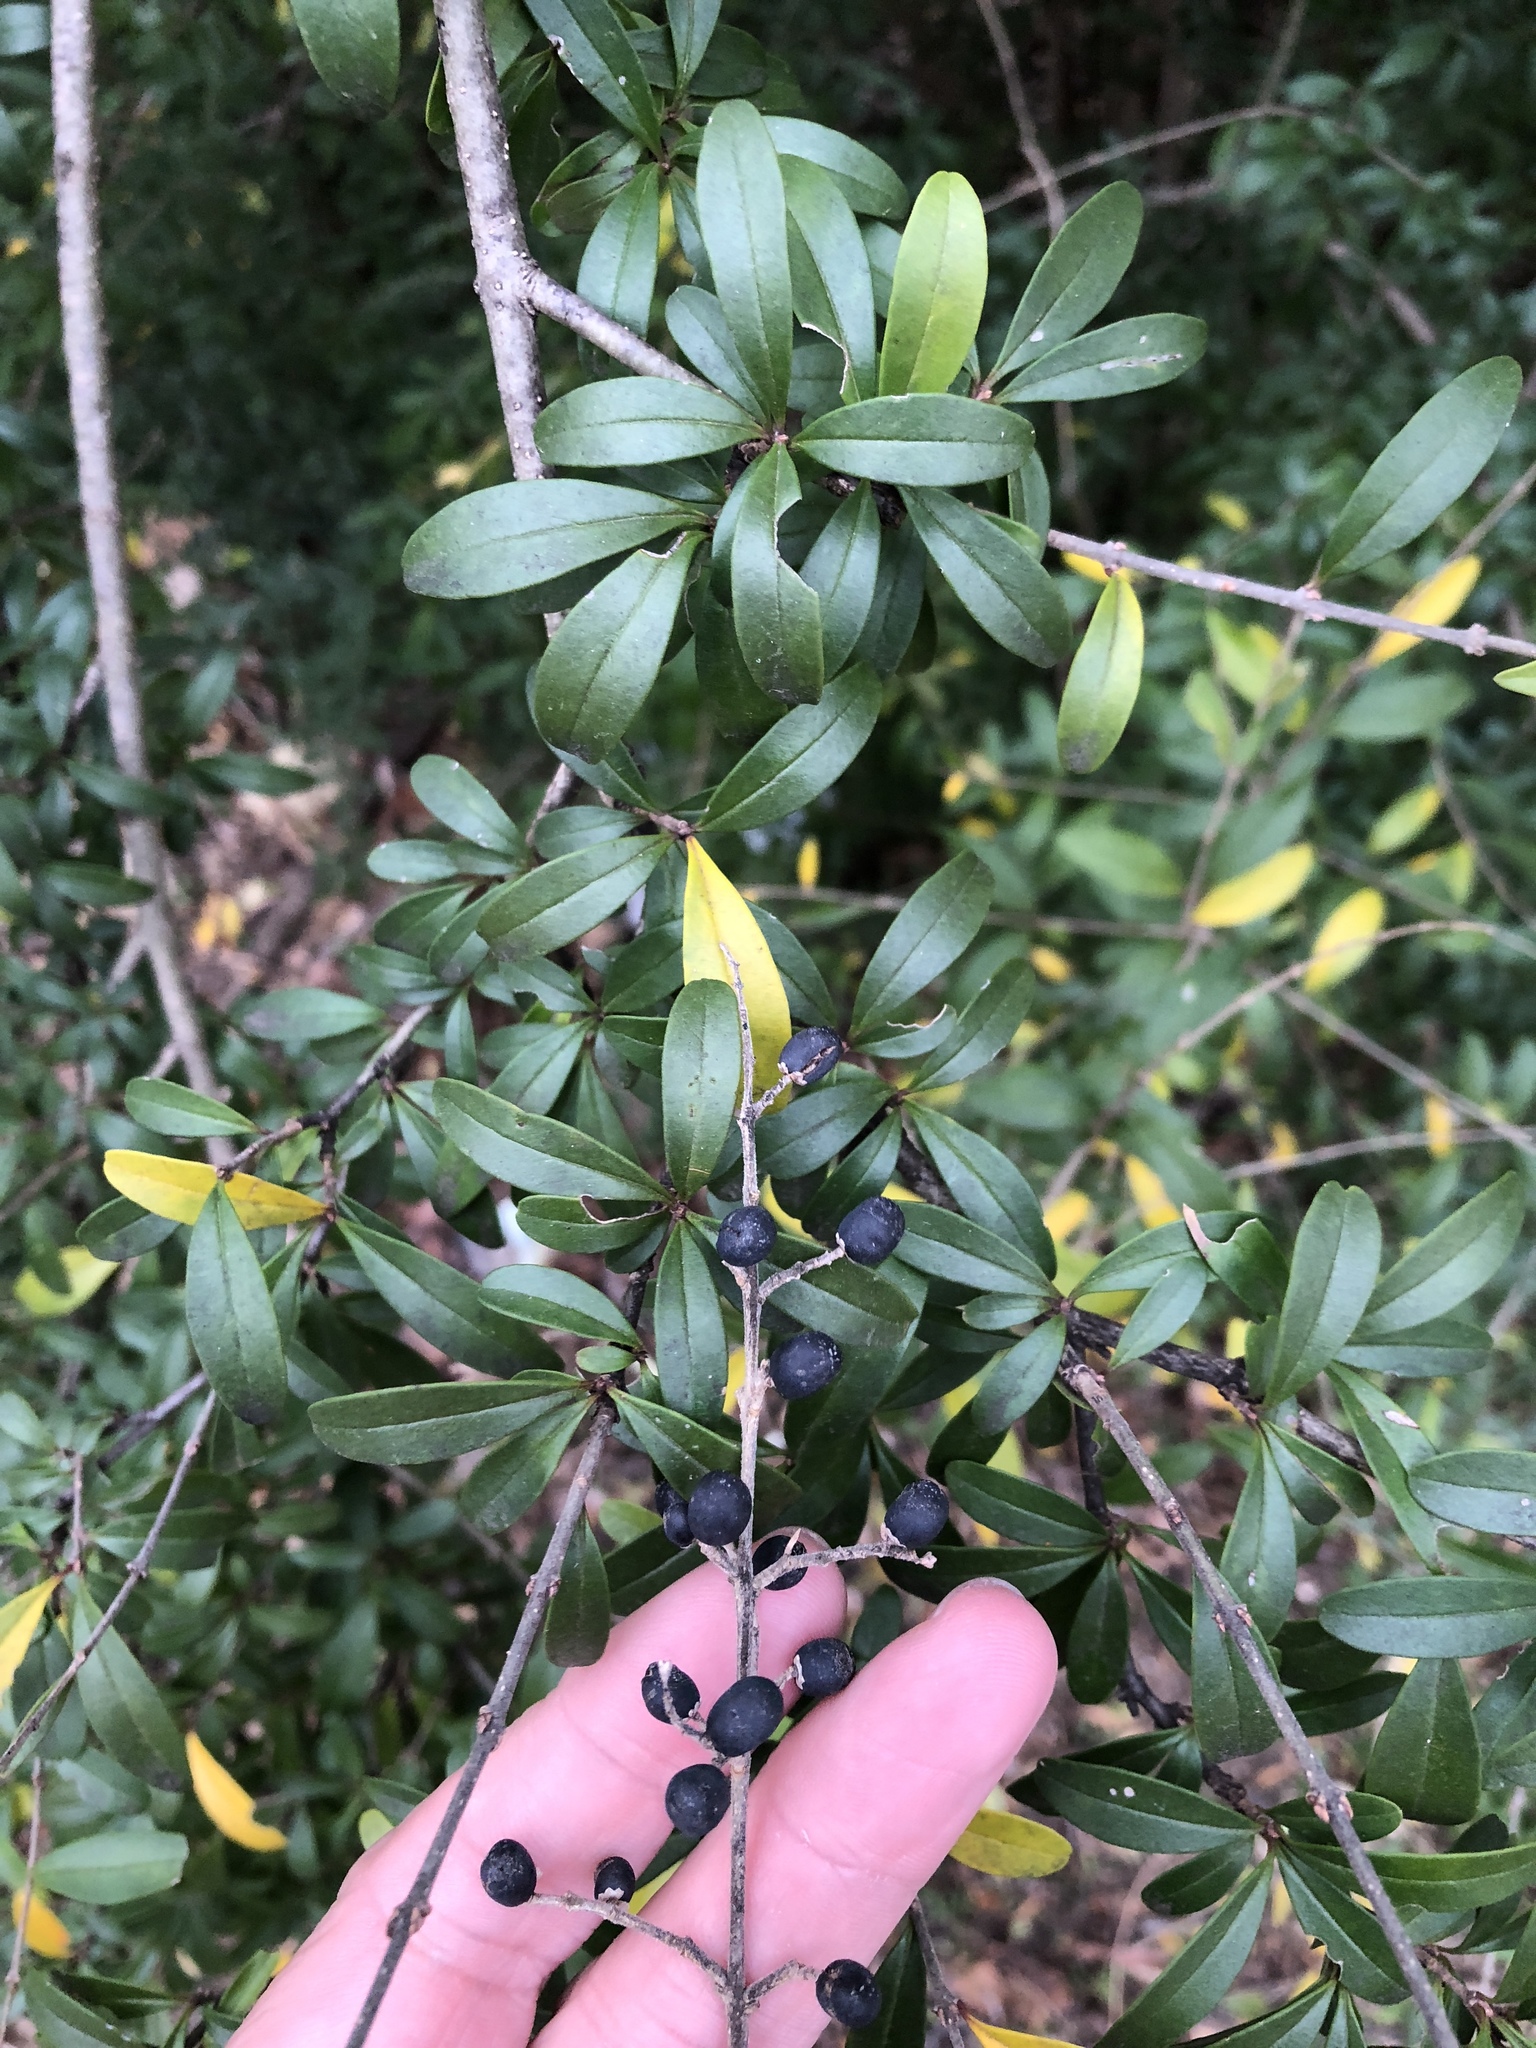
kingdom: Plantae
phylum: Tracheophyta
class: Magnoliopsida
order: Lamiales
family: Oleaceae
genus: Ligustrum
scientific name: Ligustrum quihoui
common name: Waxyleaf privet
